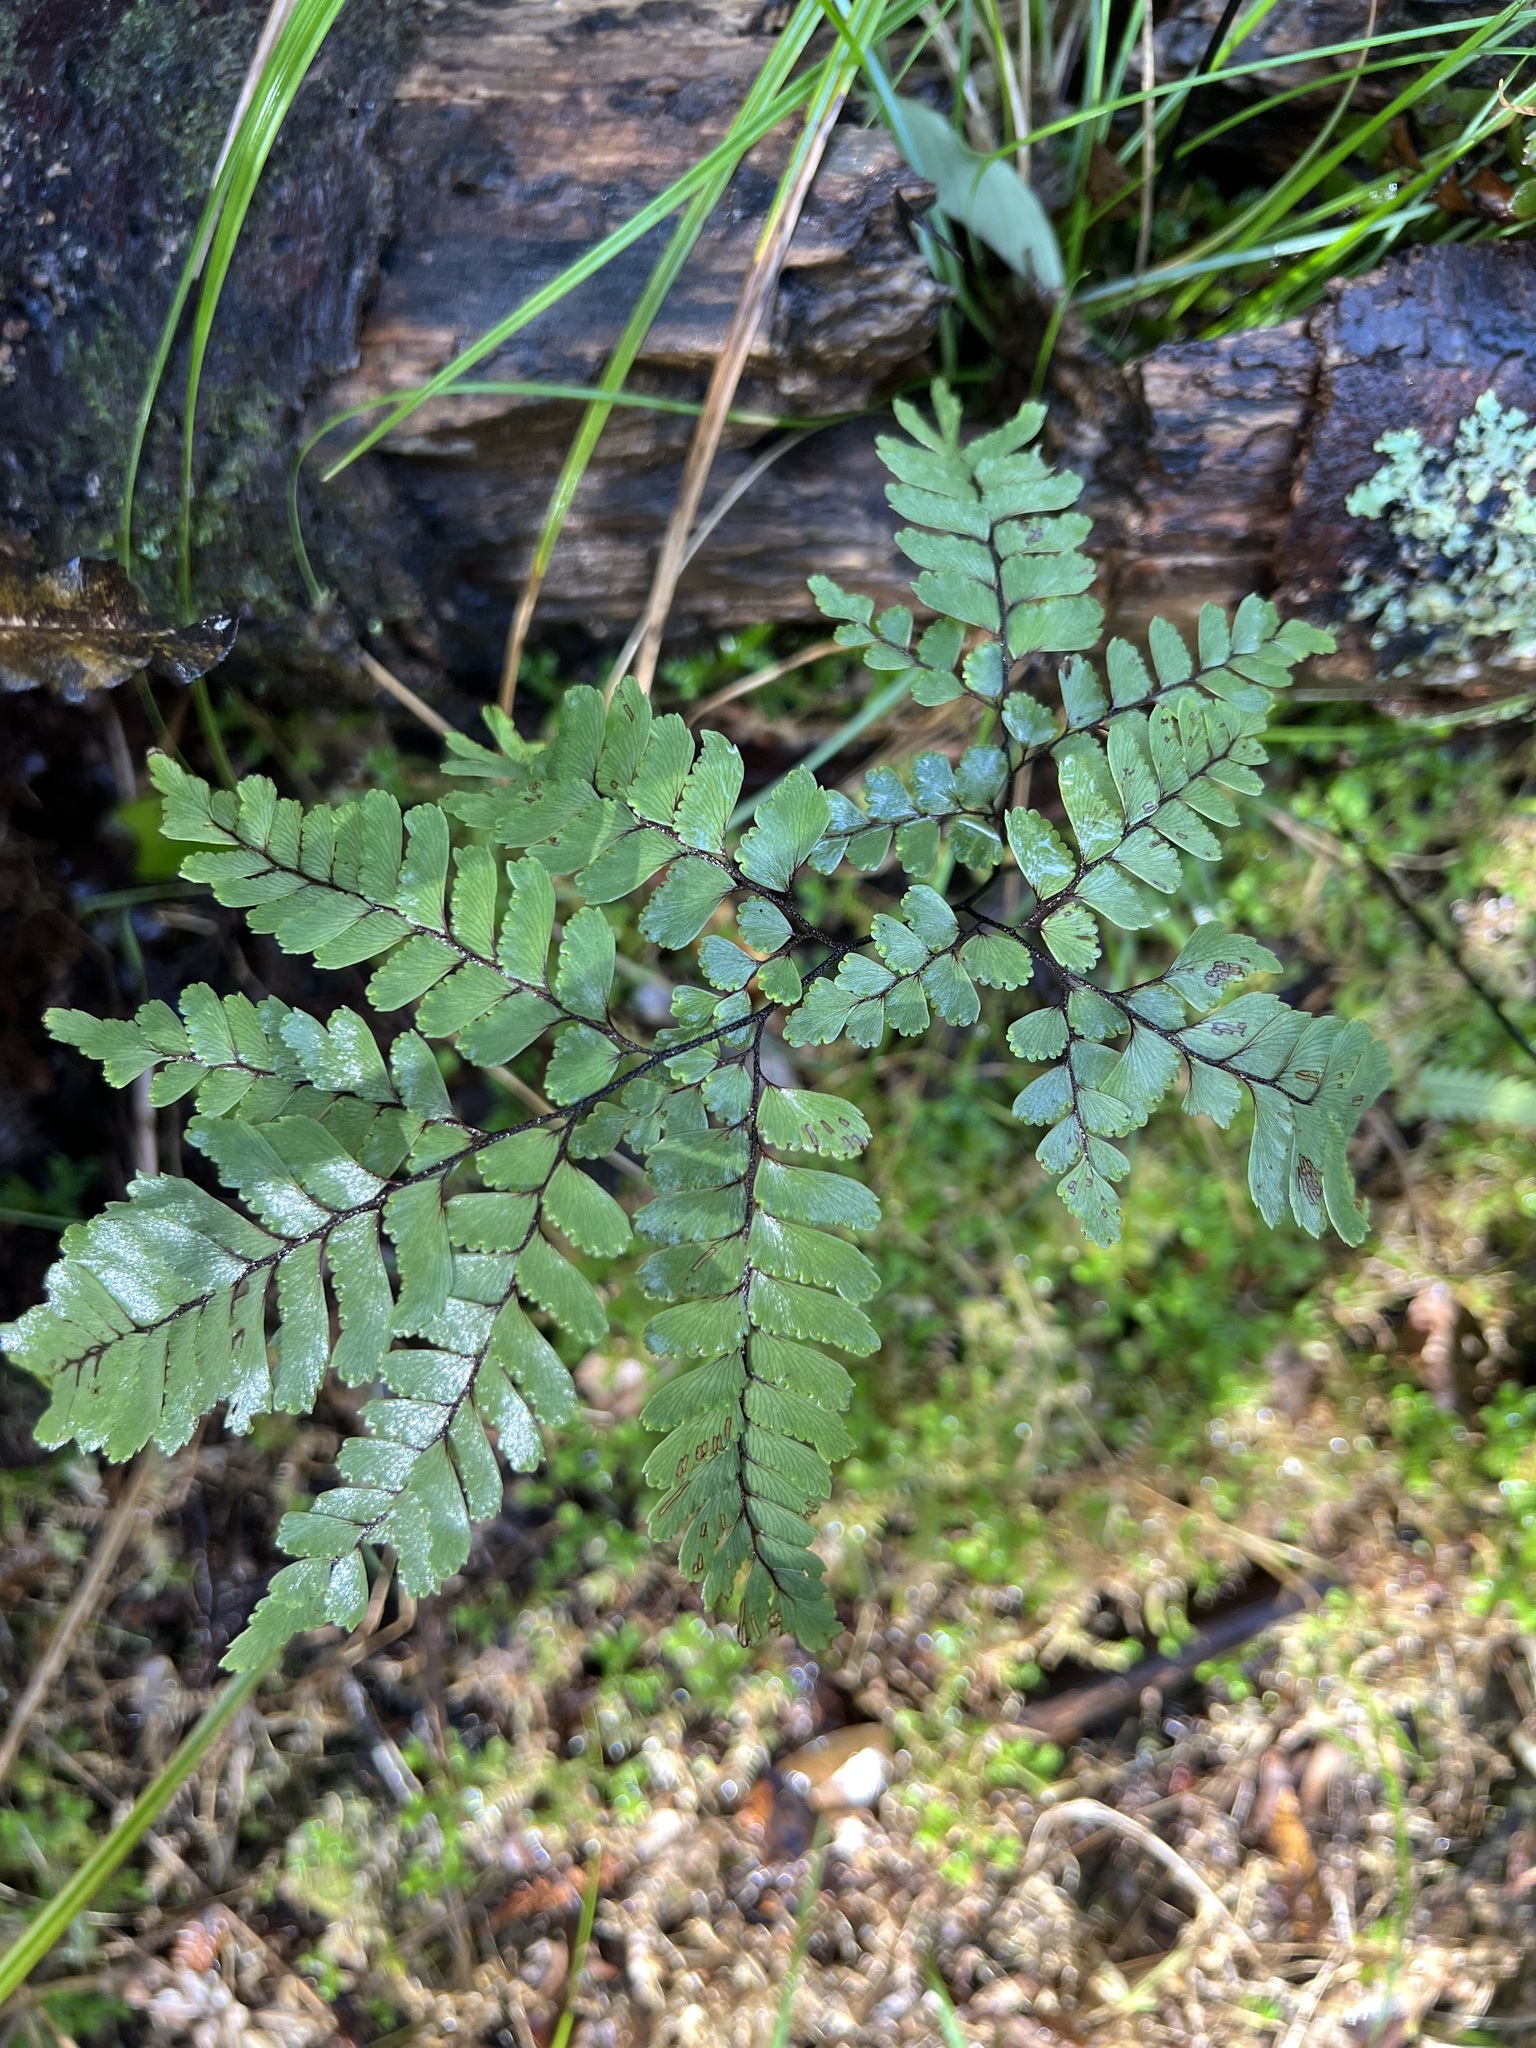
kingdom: Plantae
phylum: Tracheophyta
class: Polypodiopsida
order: Polypodiales
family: Pteridaceae
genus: Adiantum
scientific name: Adiantum fulvum
